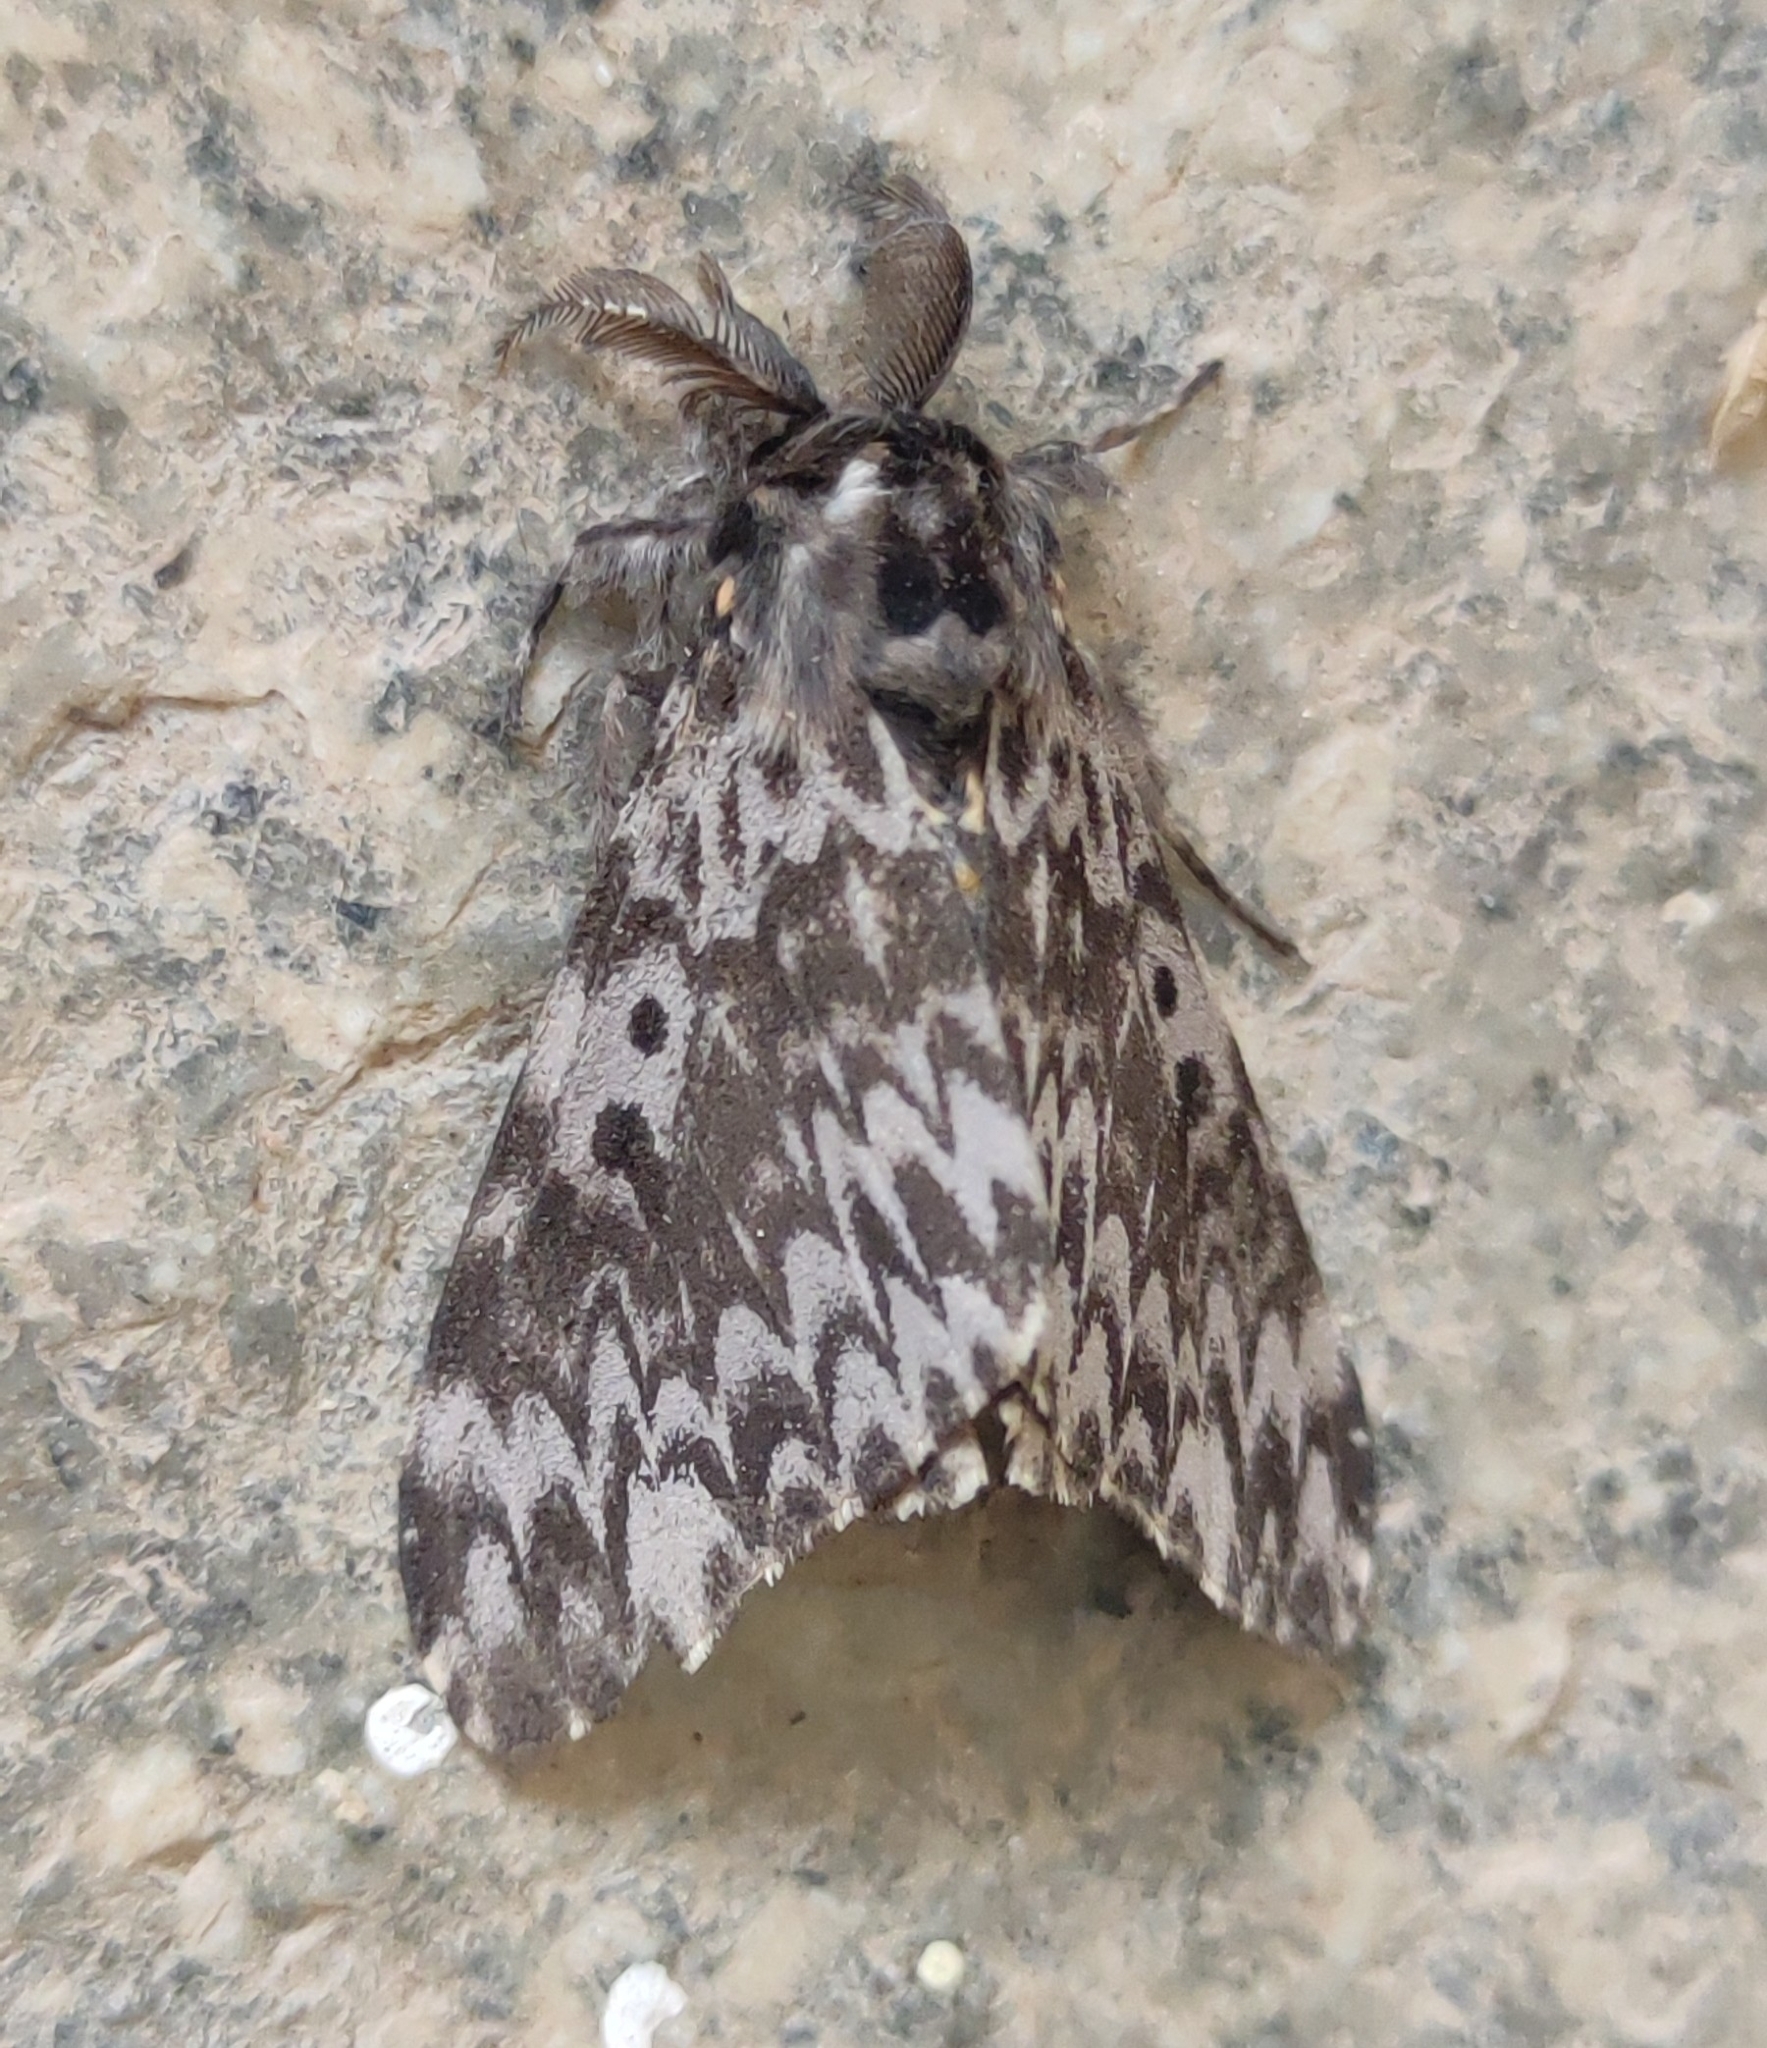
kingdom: Animalia
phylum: Arthropoda
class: Insecta
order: Lepidoptera
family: Erebidae
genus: Lymantria
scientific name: Lymantria marginata
